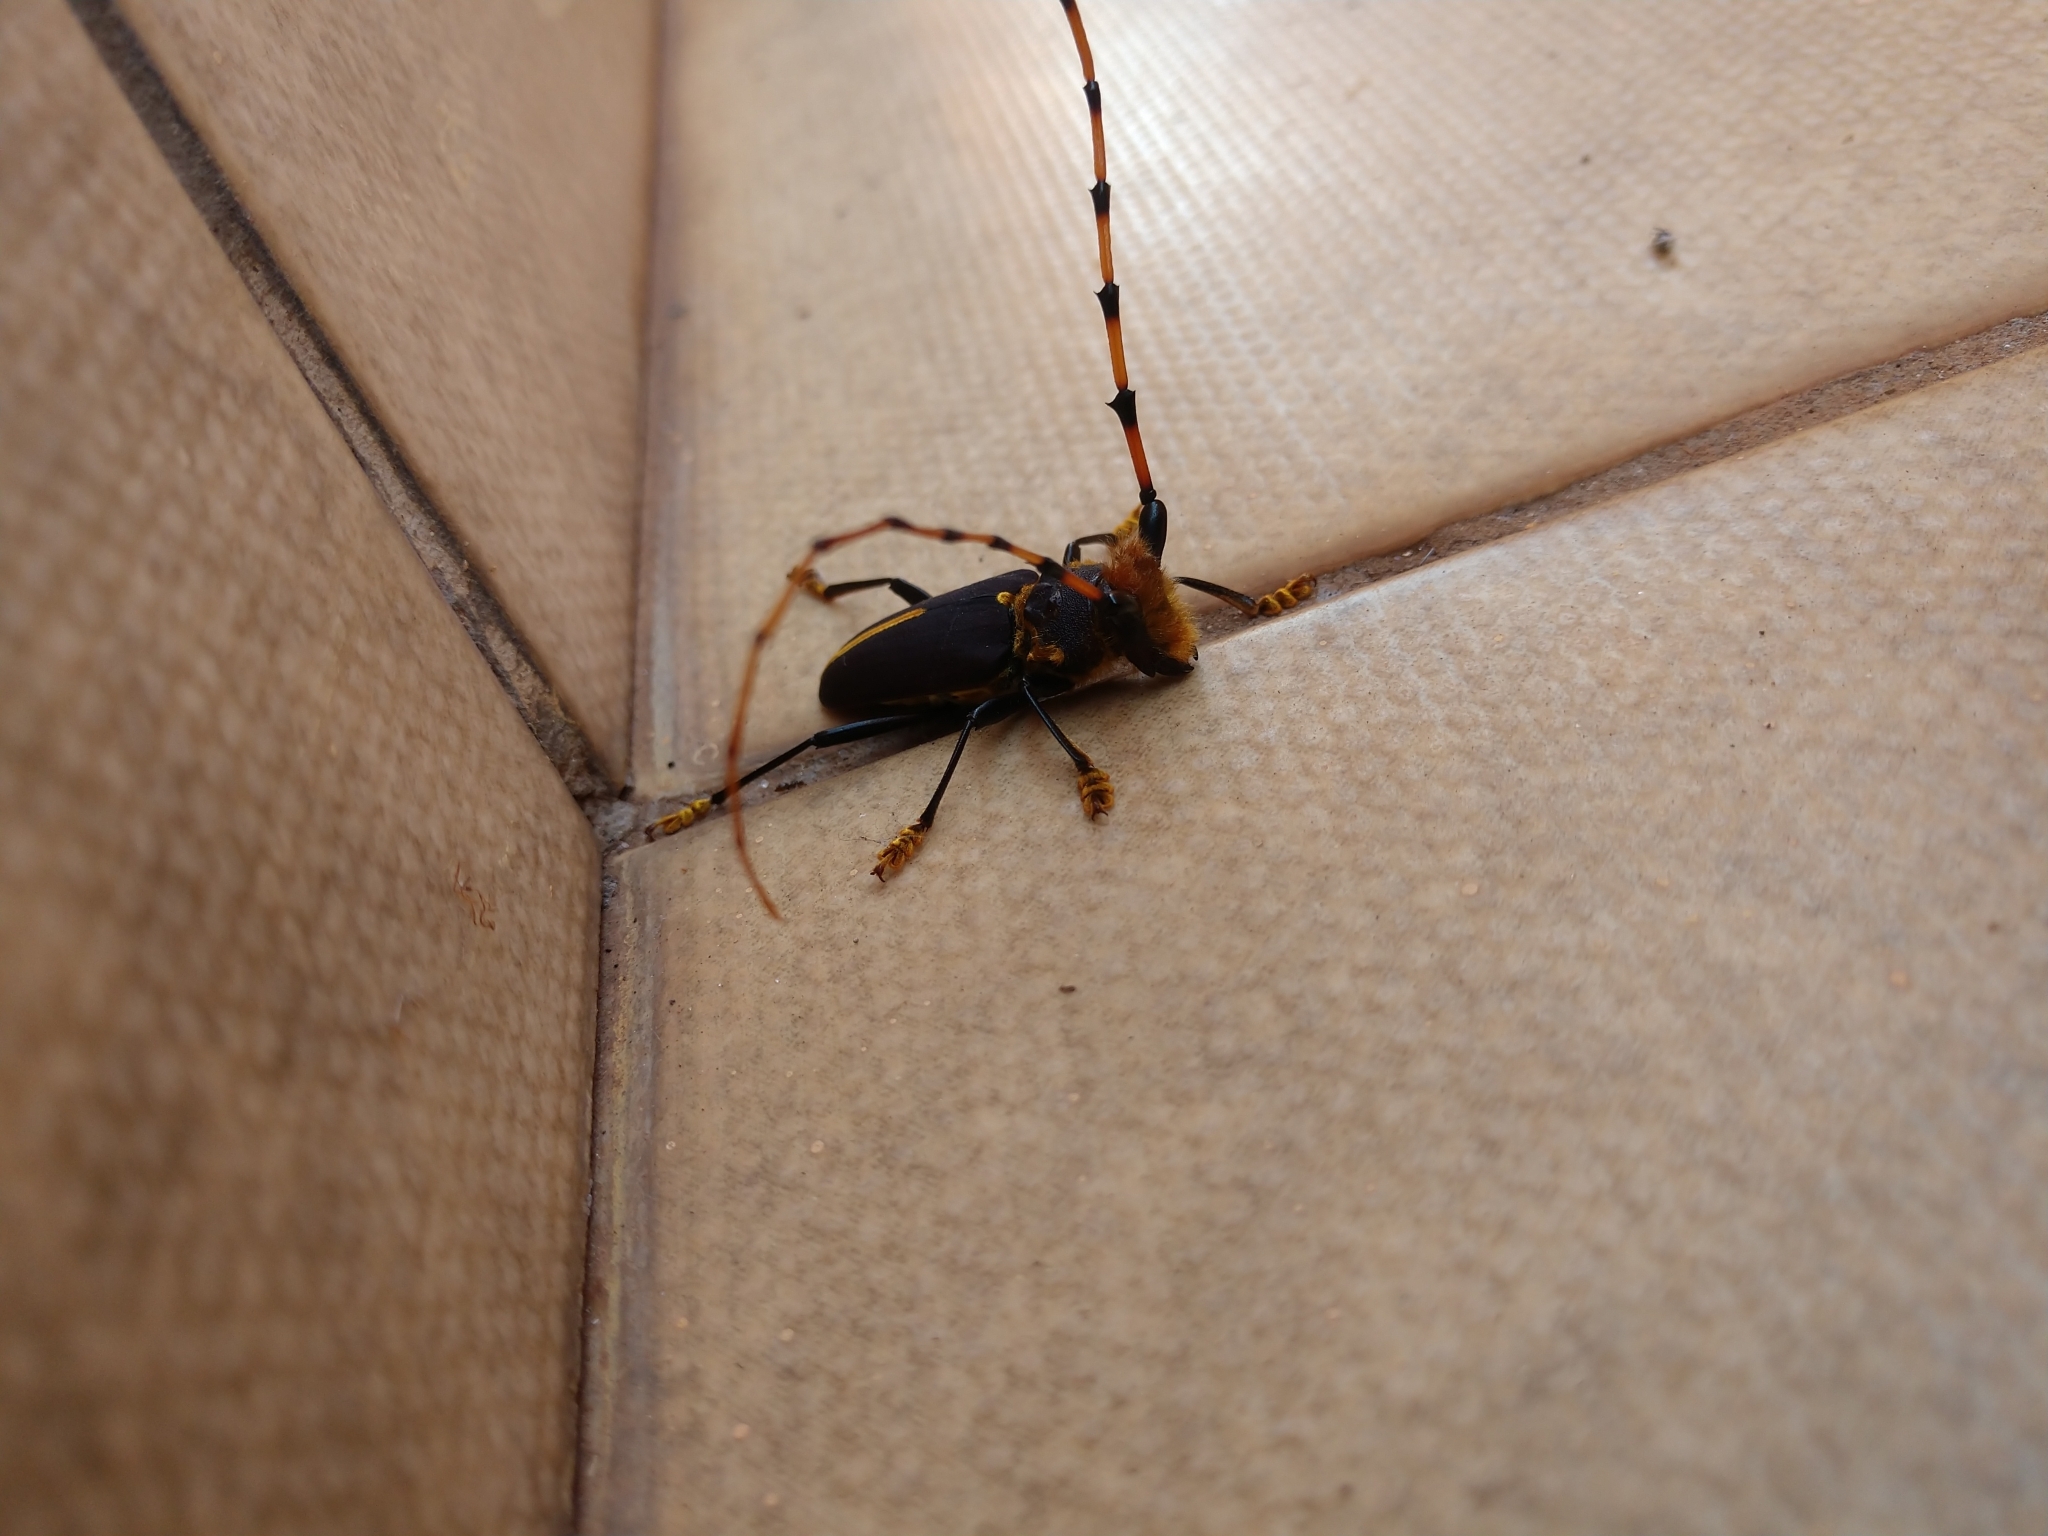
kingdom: Animalia
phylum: Arthropoda
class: Insecta
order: Coleoptera
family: Cerambycidae
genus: Dorcacerus
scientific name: Dorcacerus barbatus
